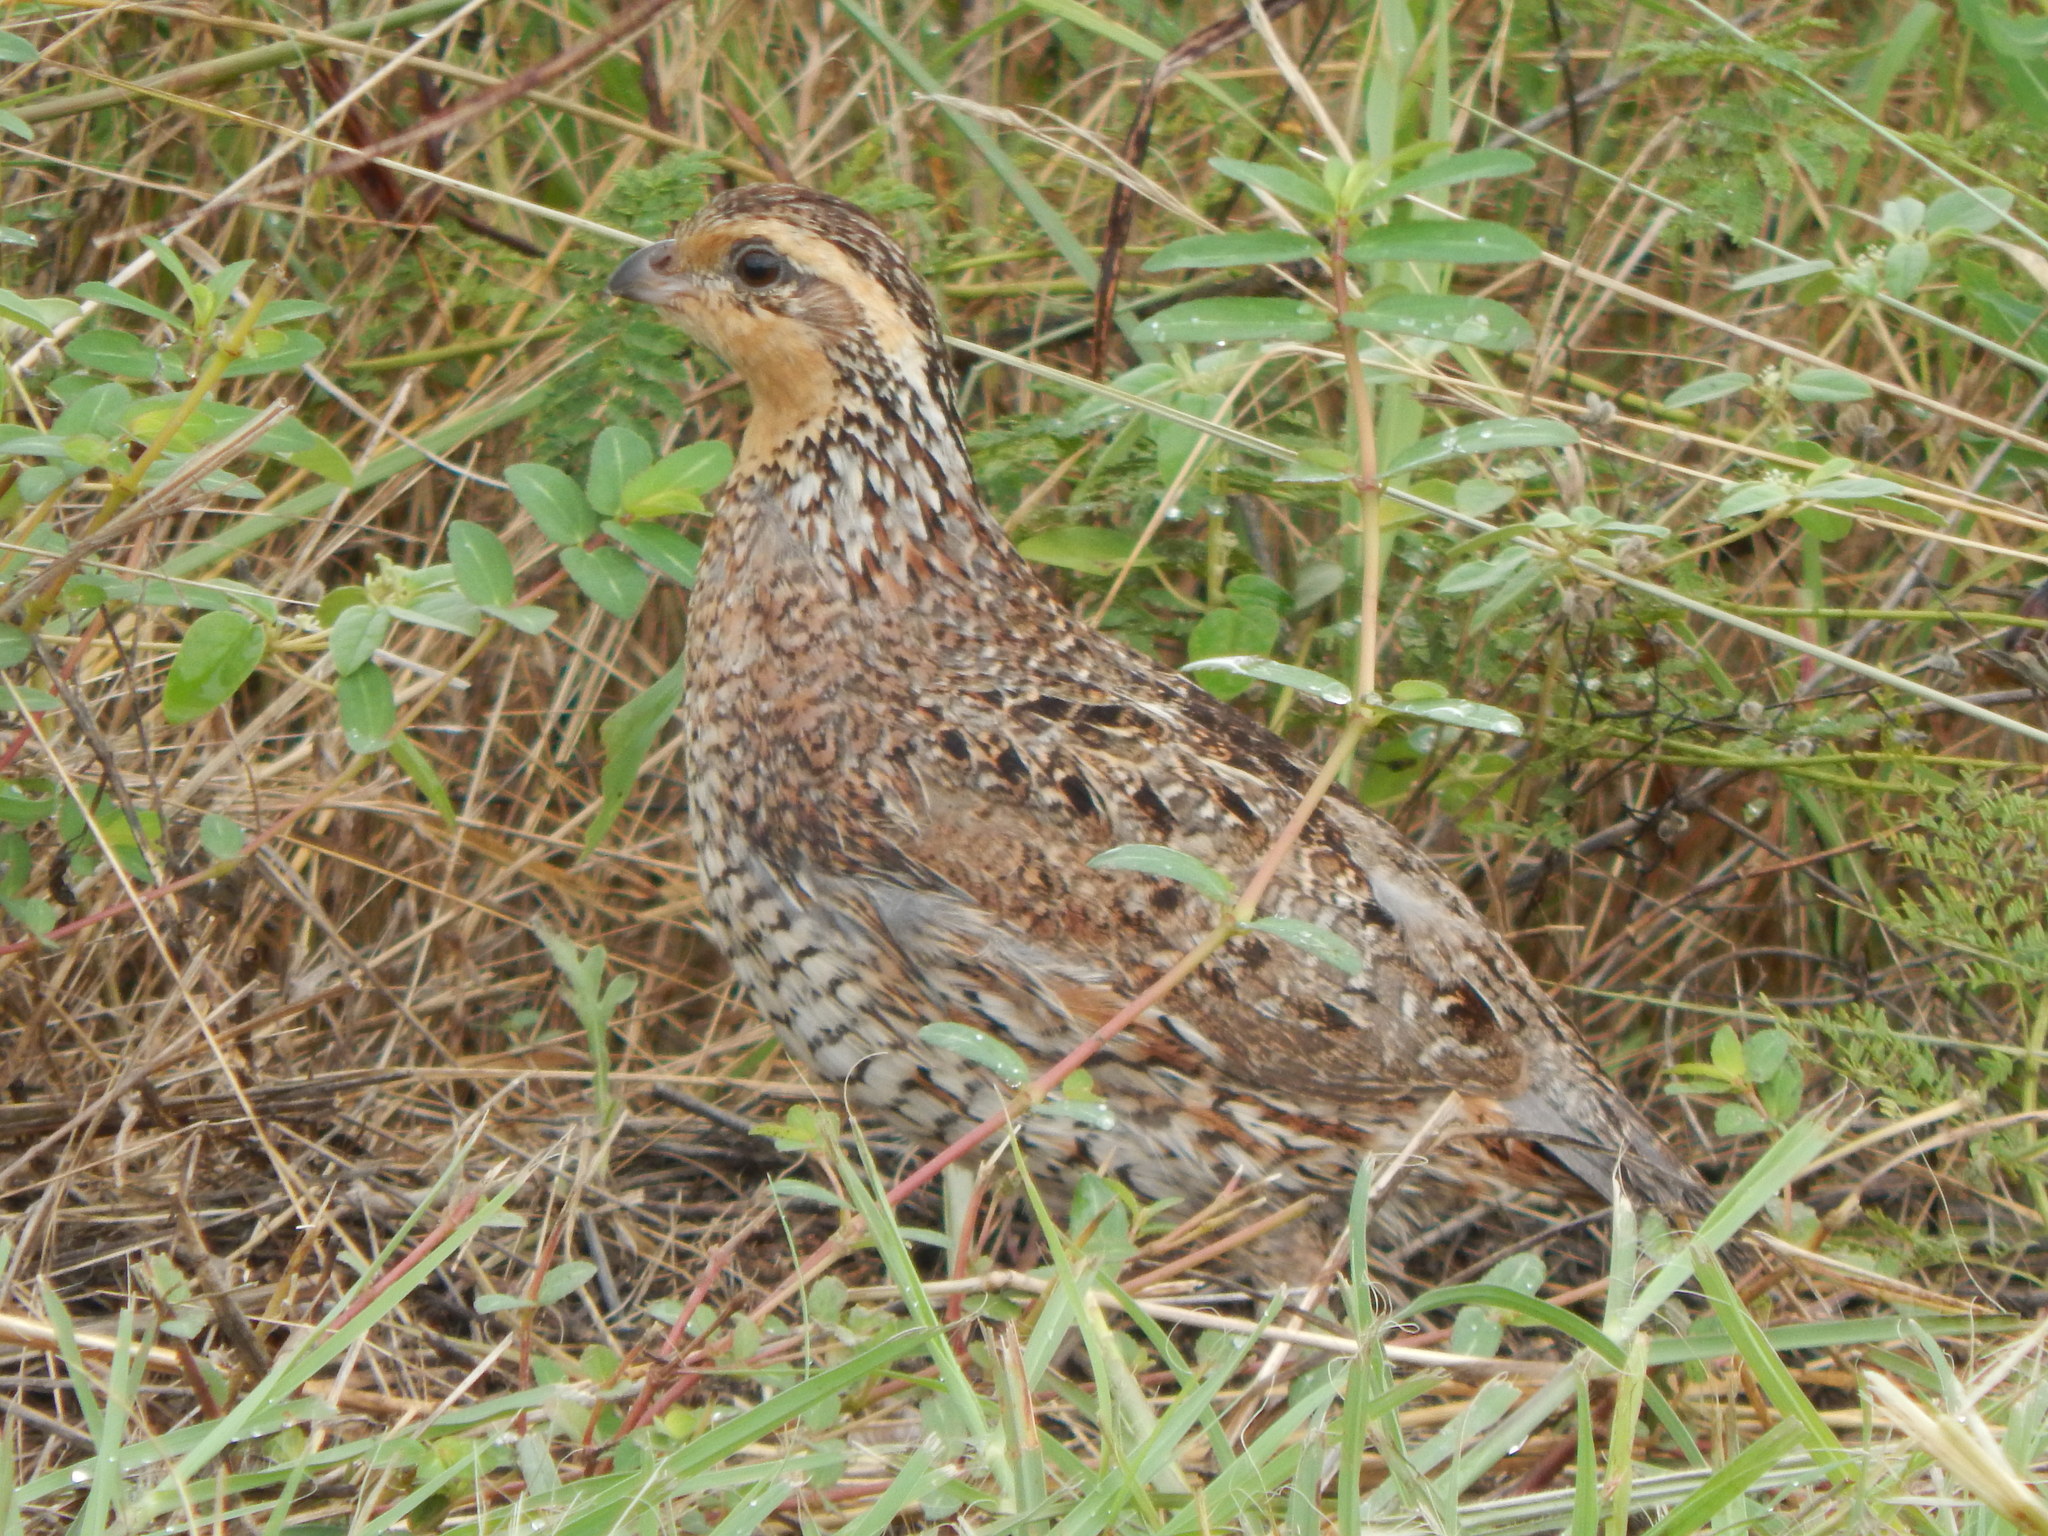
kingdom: Animalia
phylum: Chordata
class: Aves
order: Galliformes
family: Odontophoridae
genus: Colinus
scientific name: Colinus virginianus
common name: Northern bobwhite
